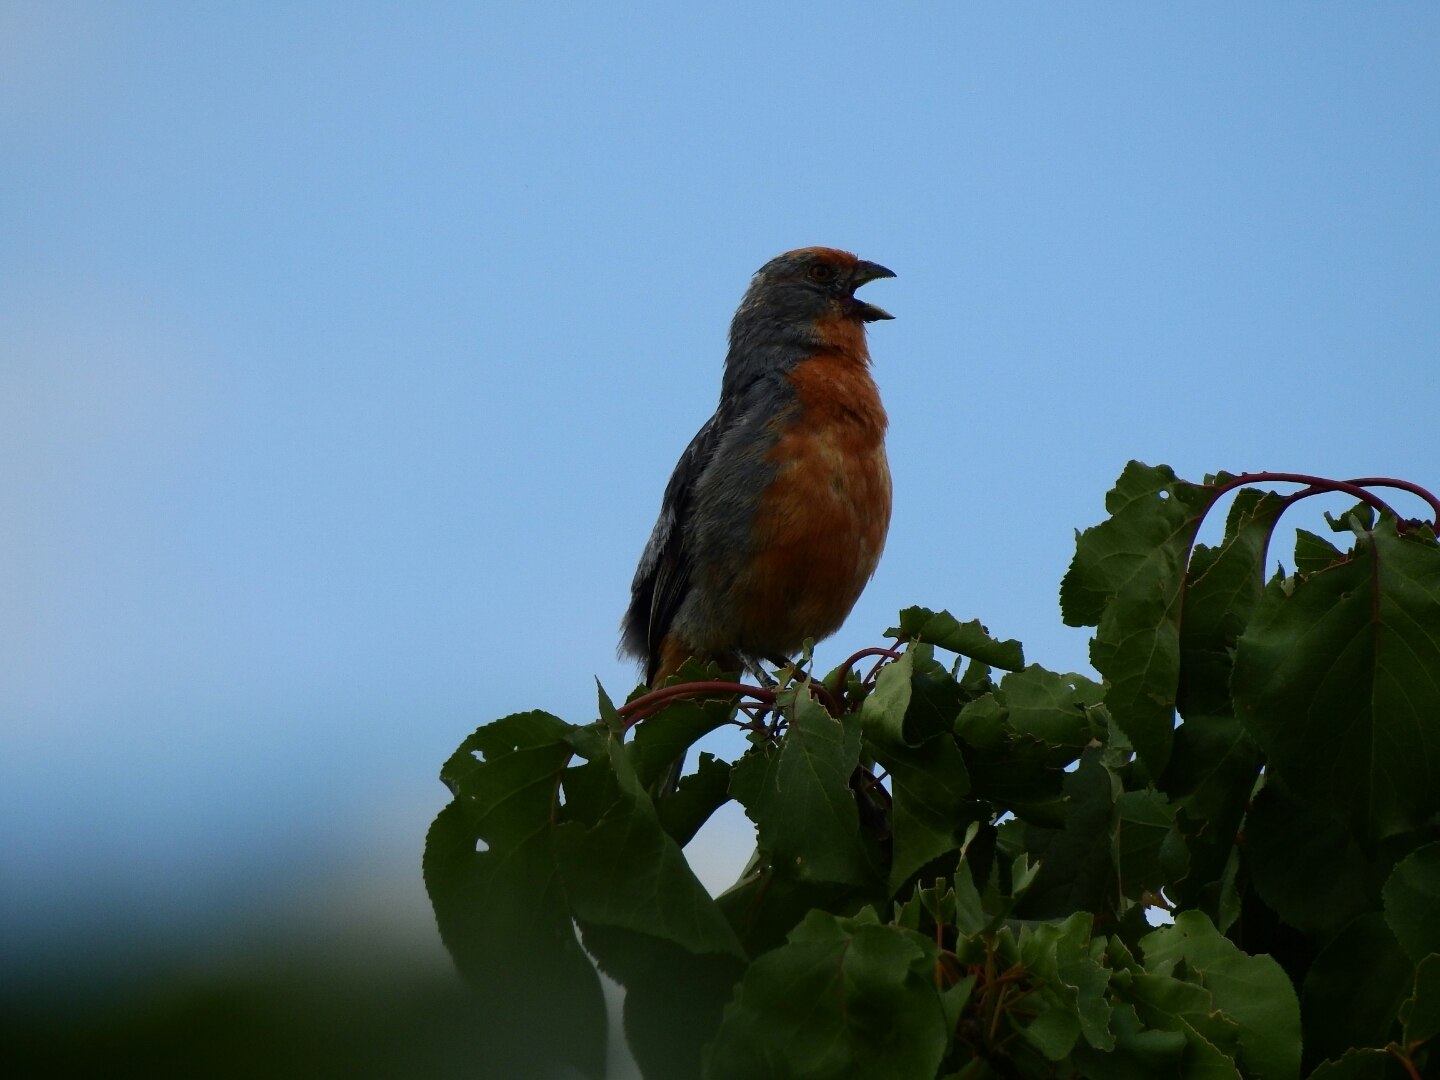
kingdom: Animalia
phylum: Chordata
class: Aves
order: Passeriformes
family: Cotingidae
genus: Phytotoma
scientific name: Phytotoma rutila
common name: White-tipped plantcutter
